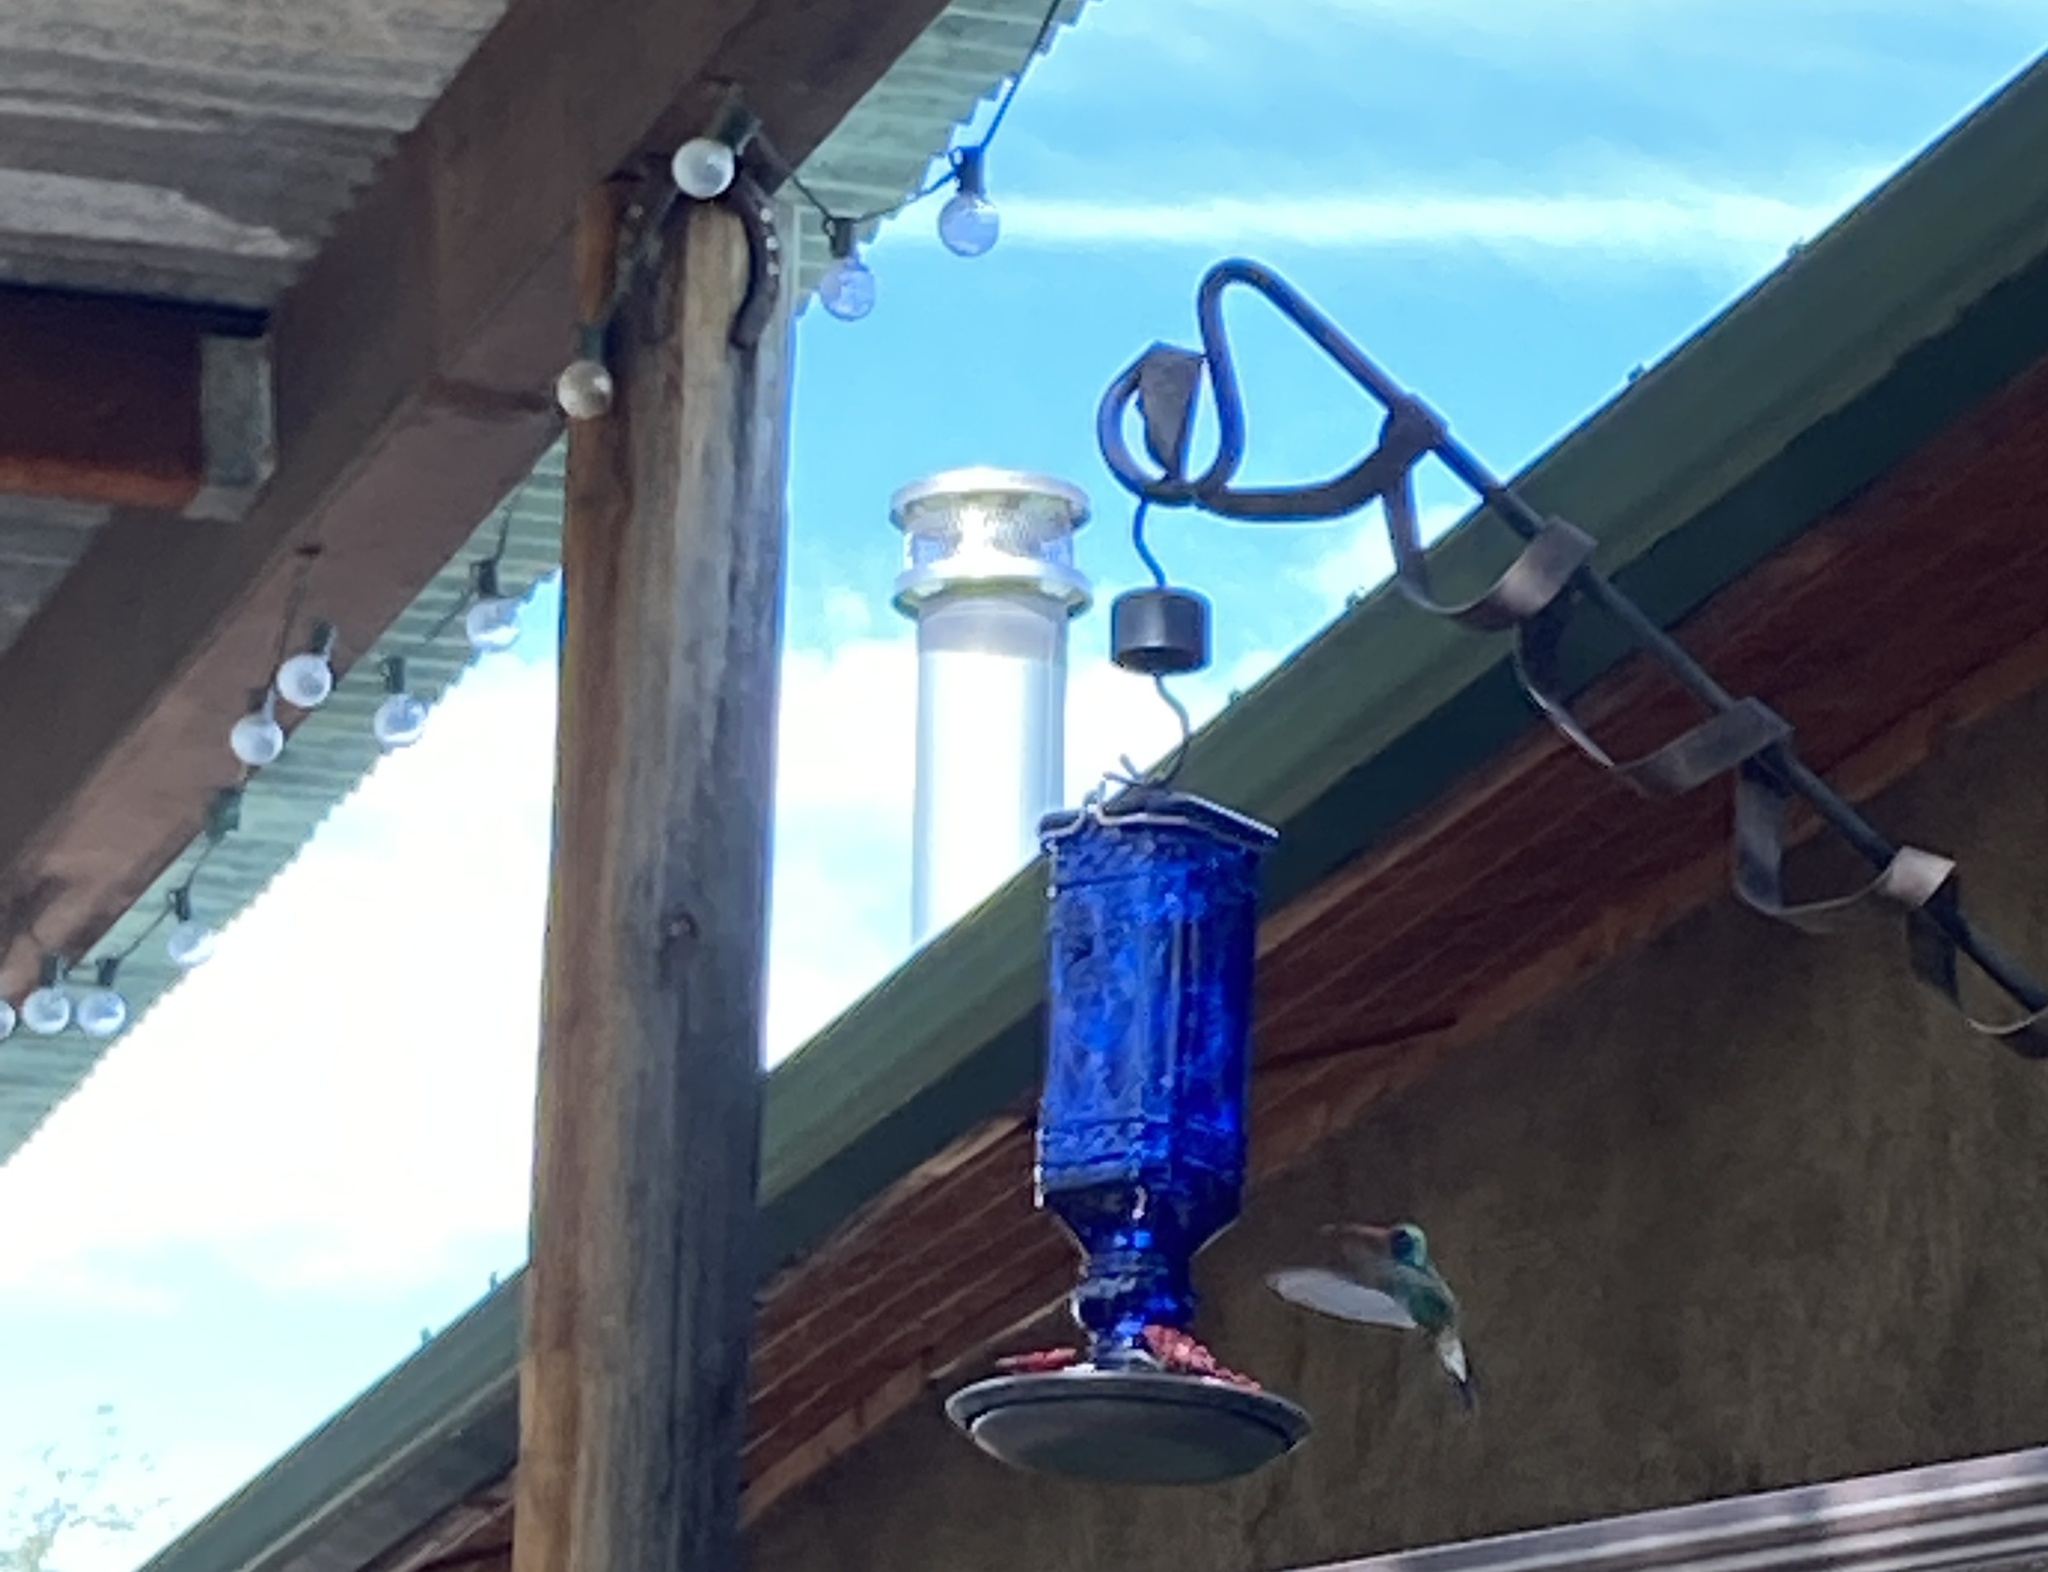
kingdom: Animalia
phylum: Chordata
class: Aves
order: Apodiformes
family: Trochilidae
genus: Cynanthus
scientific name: Cynanthus latirostris
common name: Broad-billed hummingbird
